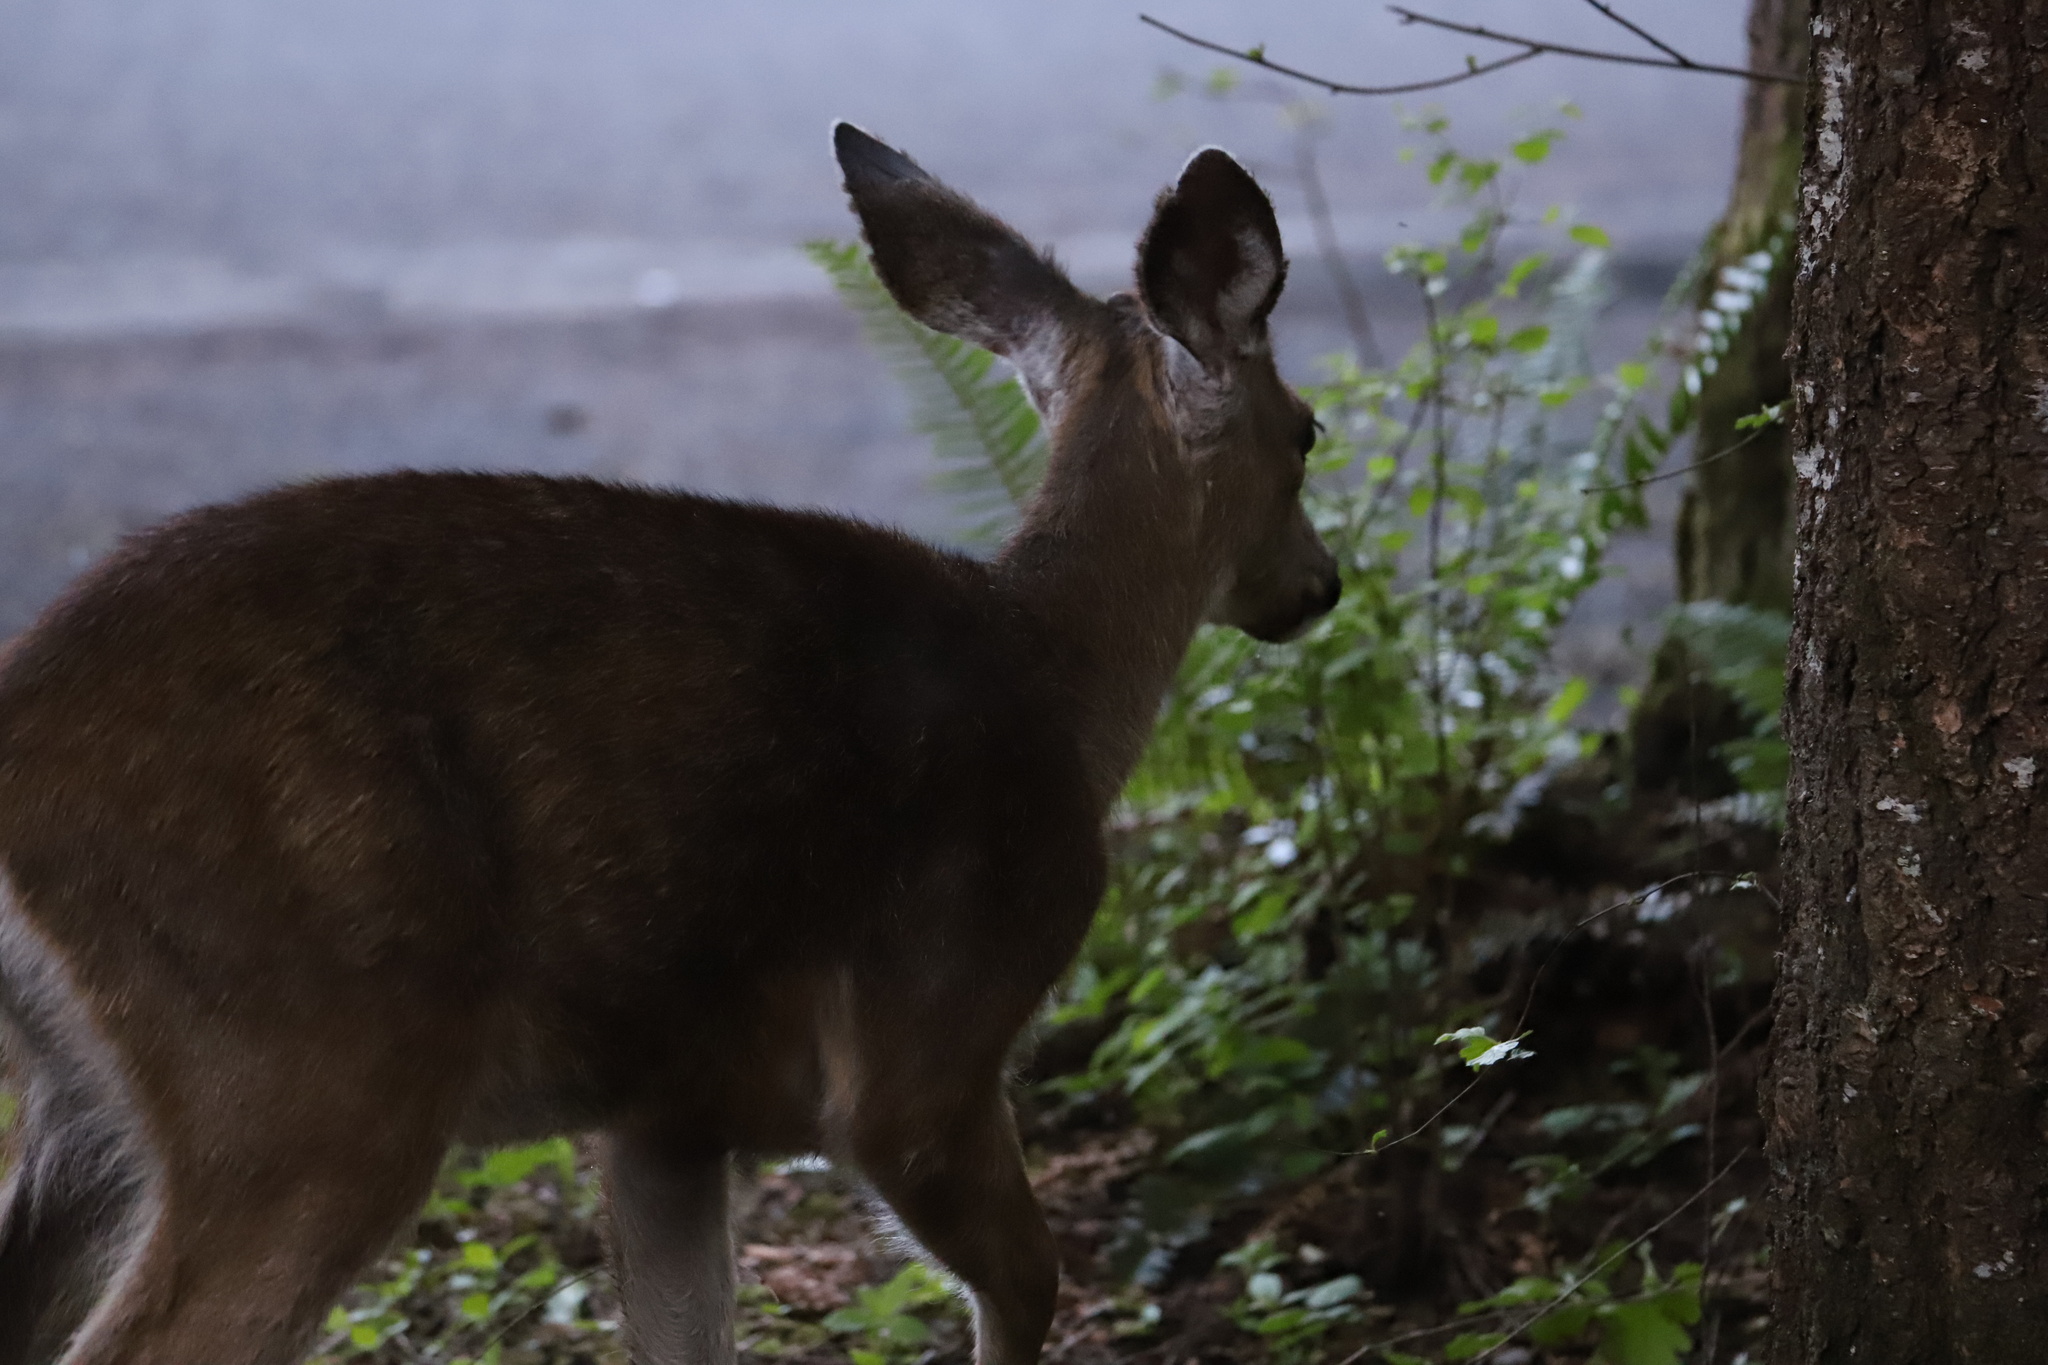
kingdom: Animalia
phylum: Chordata
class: Mammalia
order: Artiodactyla
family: Cervidae
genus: Odocoileus
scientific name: Odocoileus hemionus
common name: Mule deer
